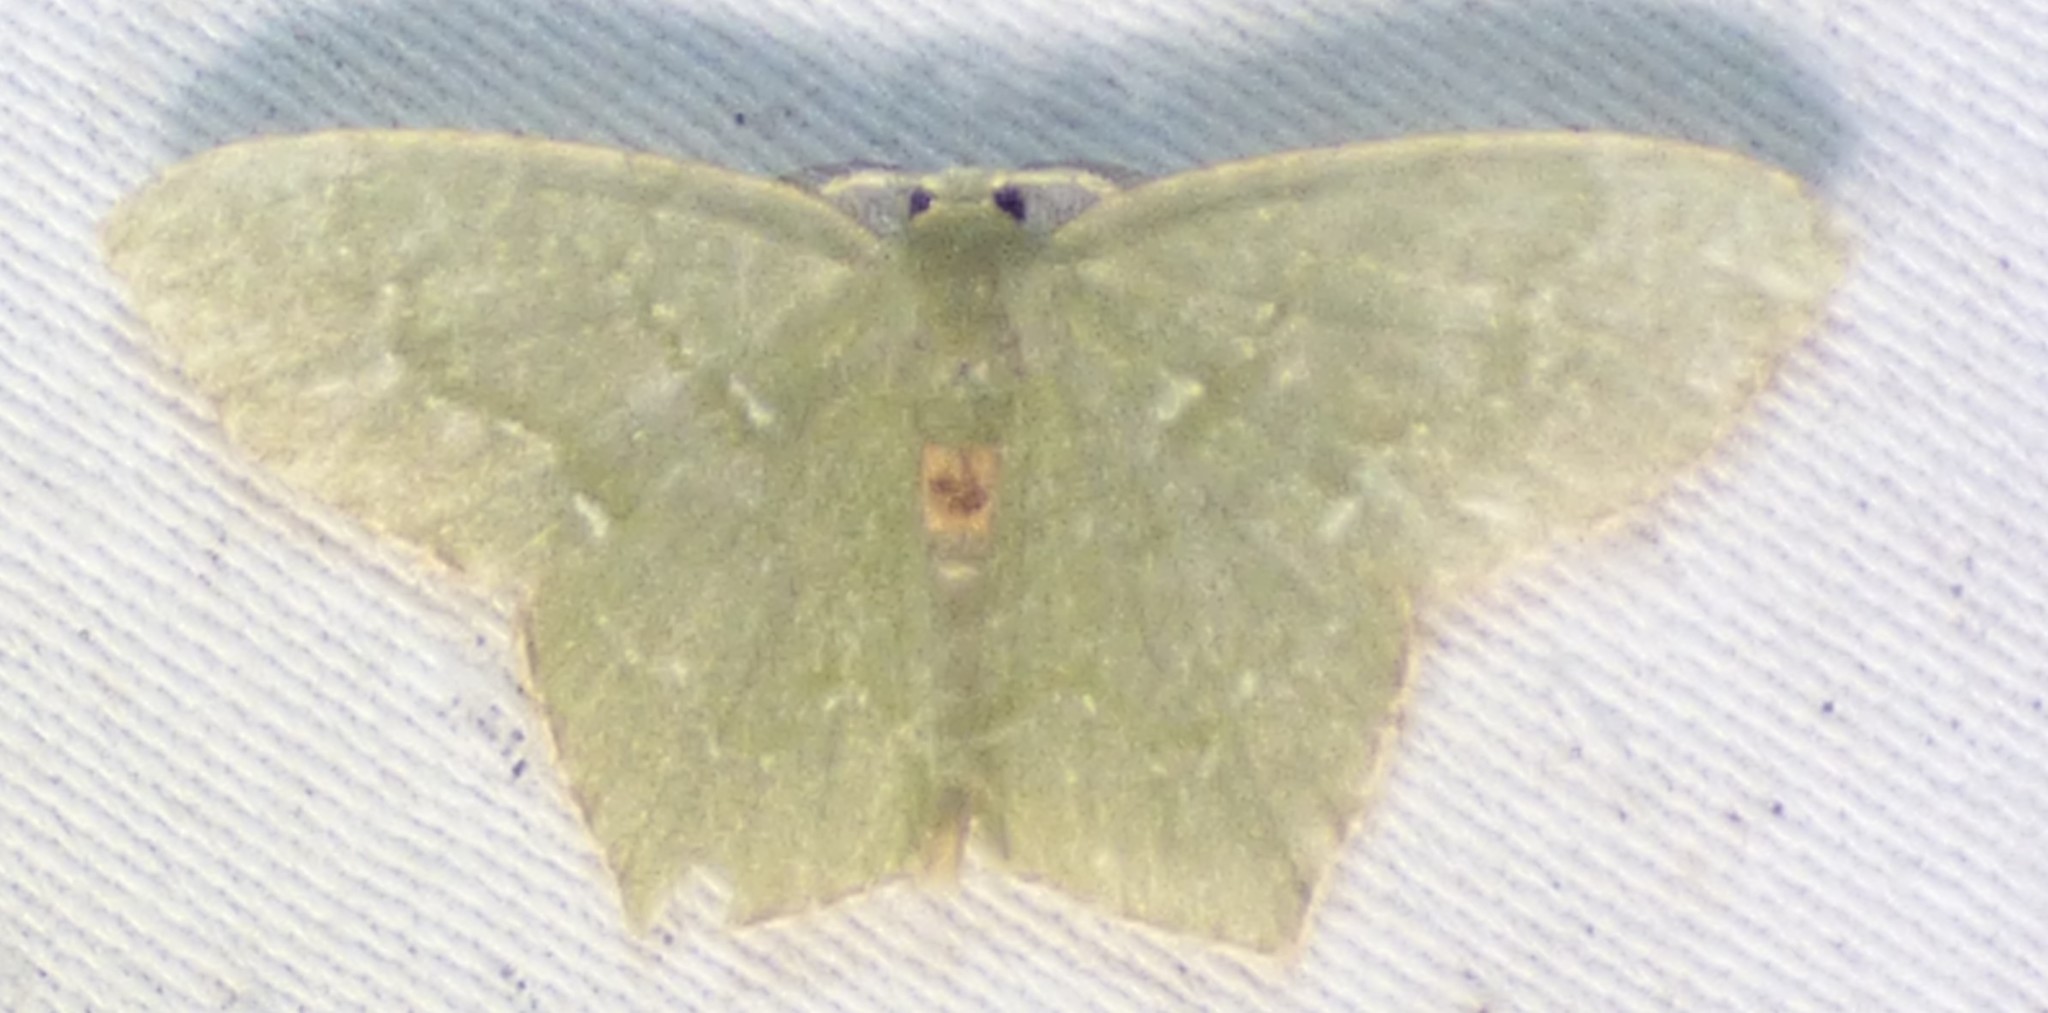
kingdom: Animalia
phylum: Arthropoda
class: Insecta
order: Lepidoptera
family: Geometridae
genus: Chloropteryx
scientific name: Chloropteryx tepperaria
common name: Angle winged emerald moth
